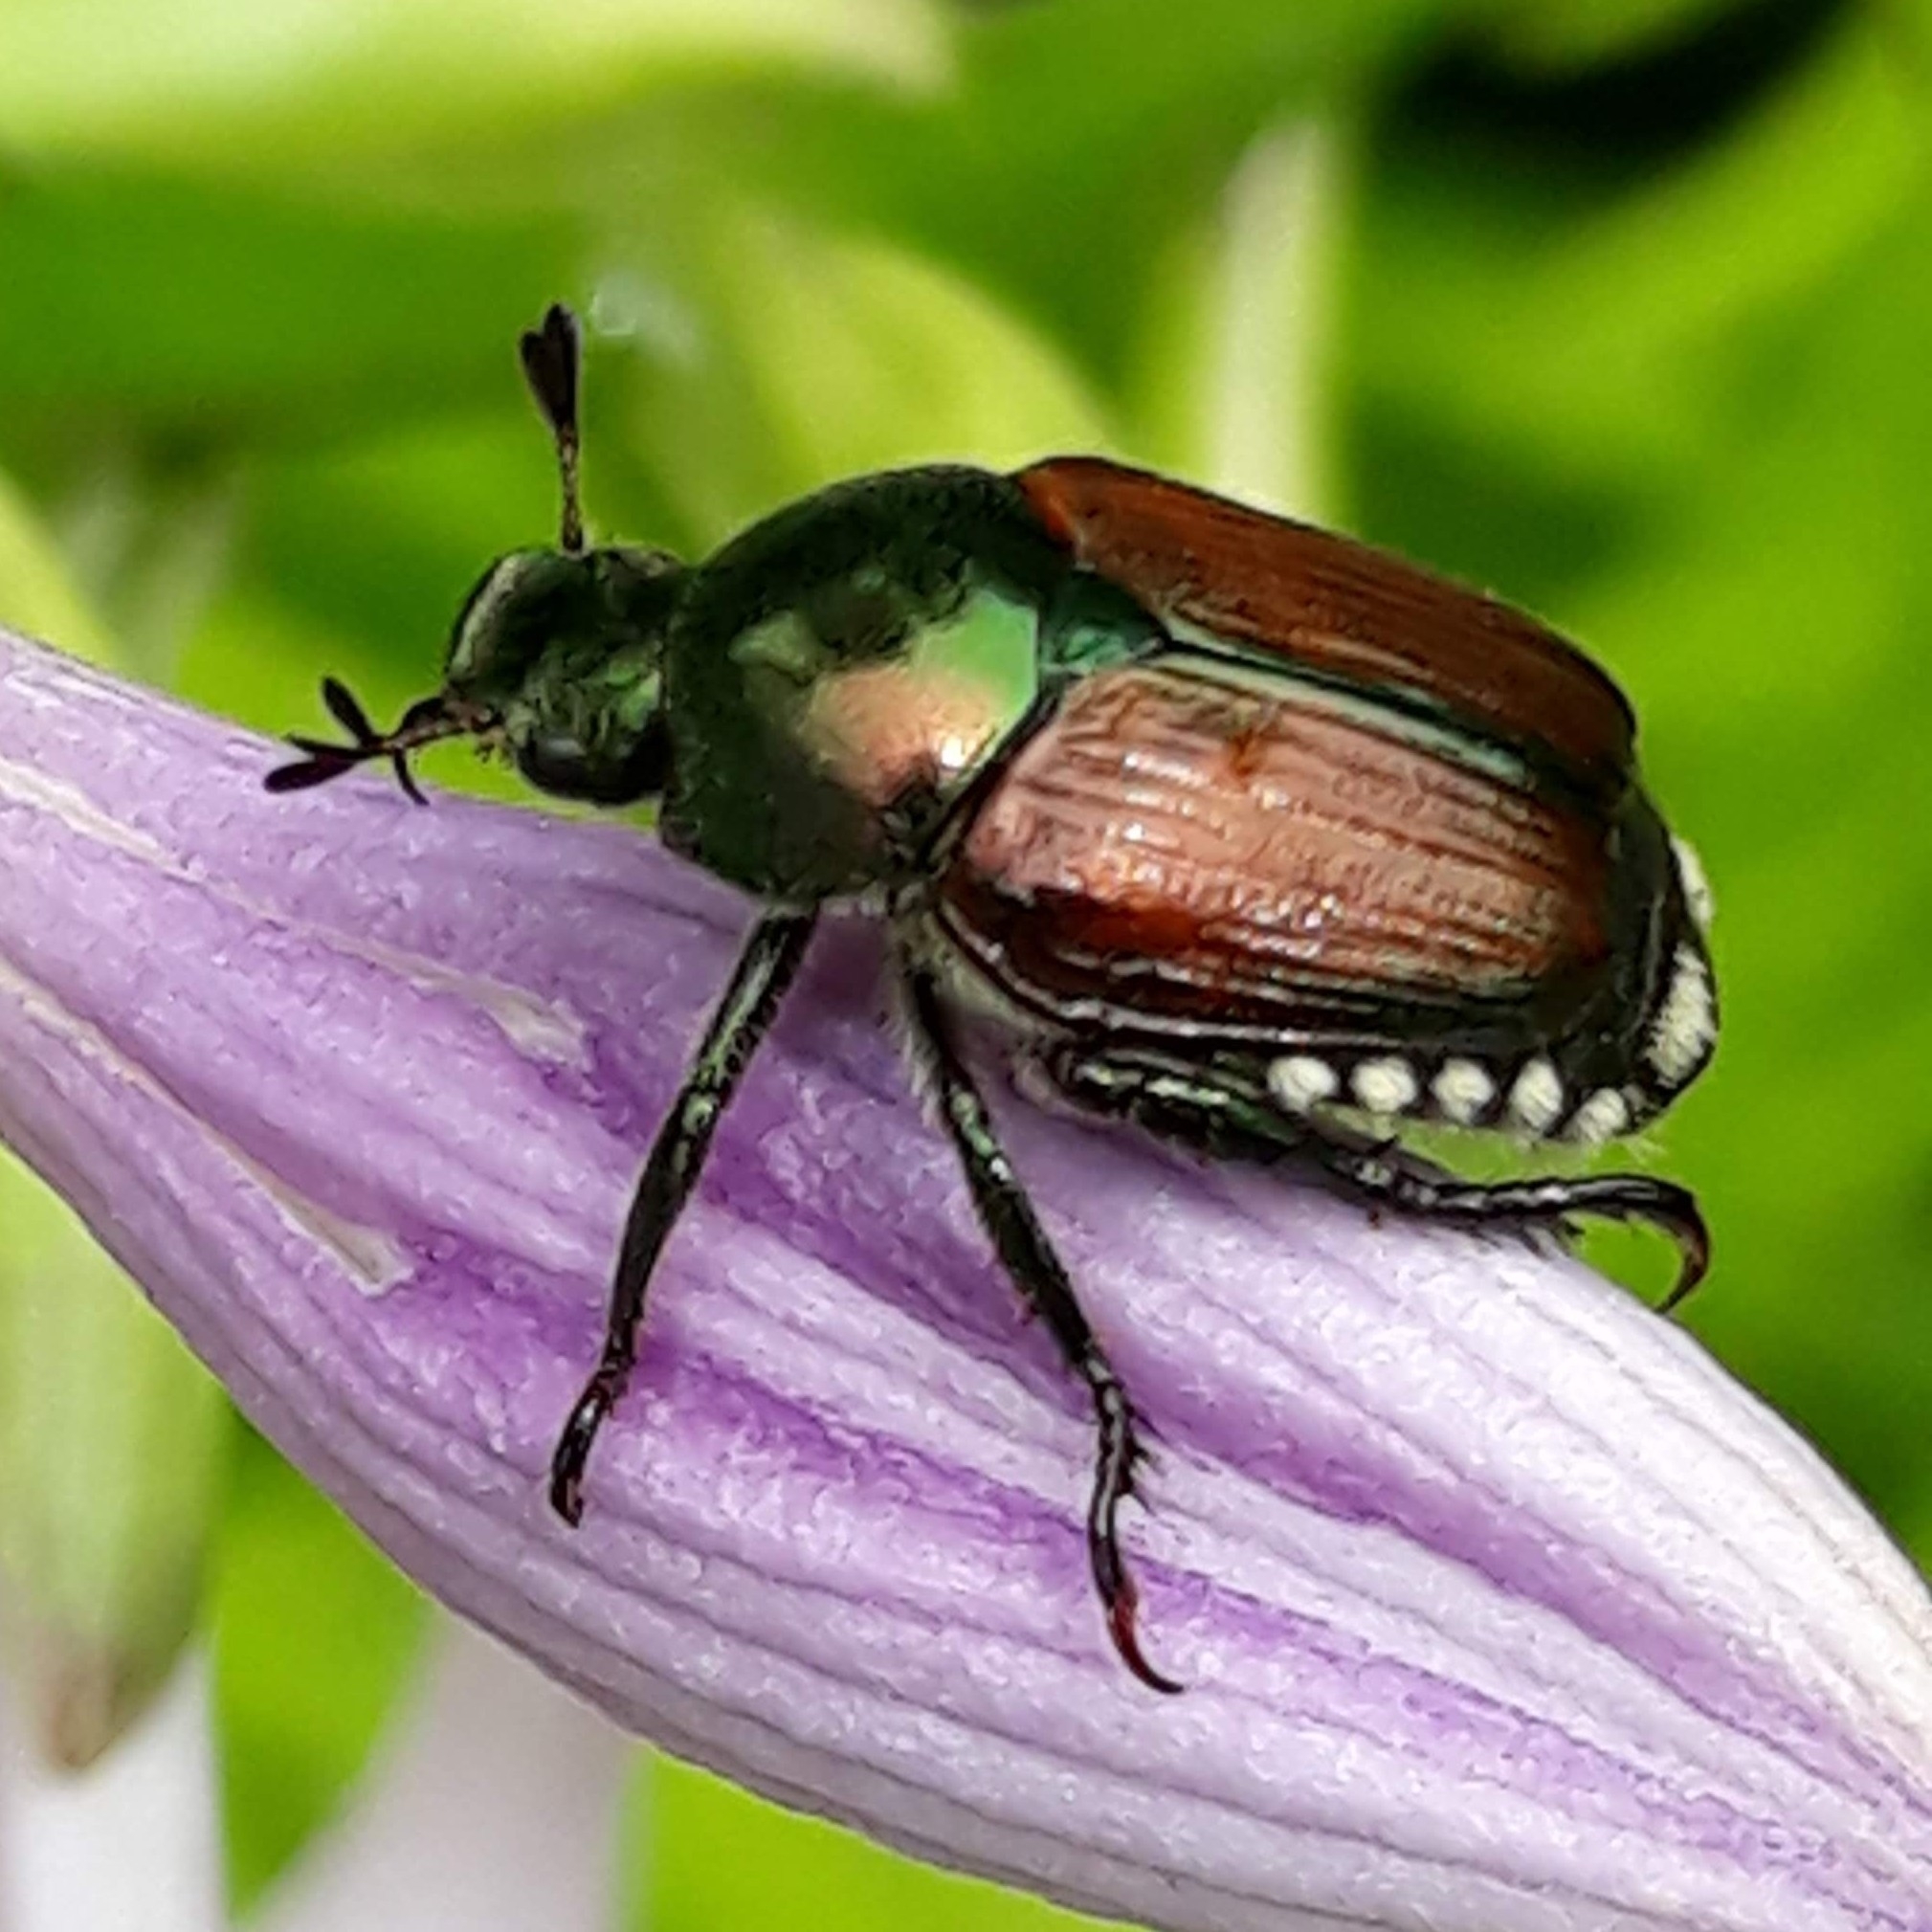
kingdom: Animalia
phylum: Arthropoda
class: Insecta
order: Coleoptera
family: Scarabaeidae
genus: Popillia
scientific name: Popillia japonica
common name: Japanese beetle
